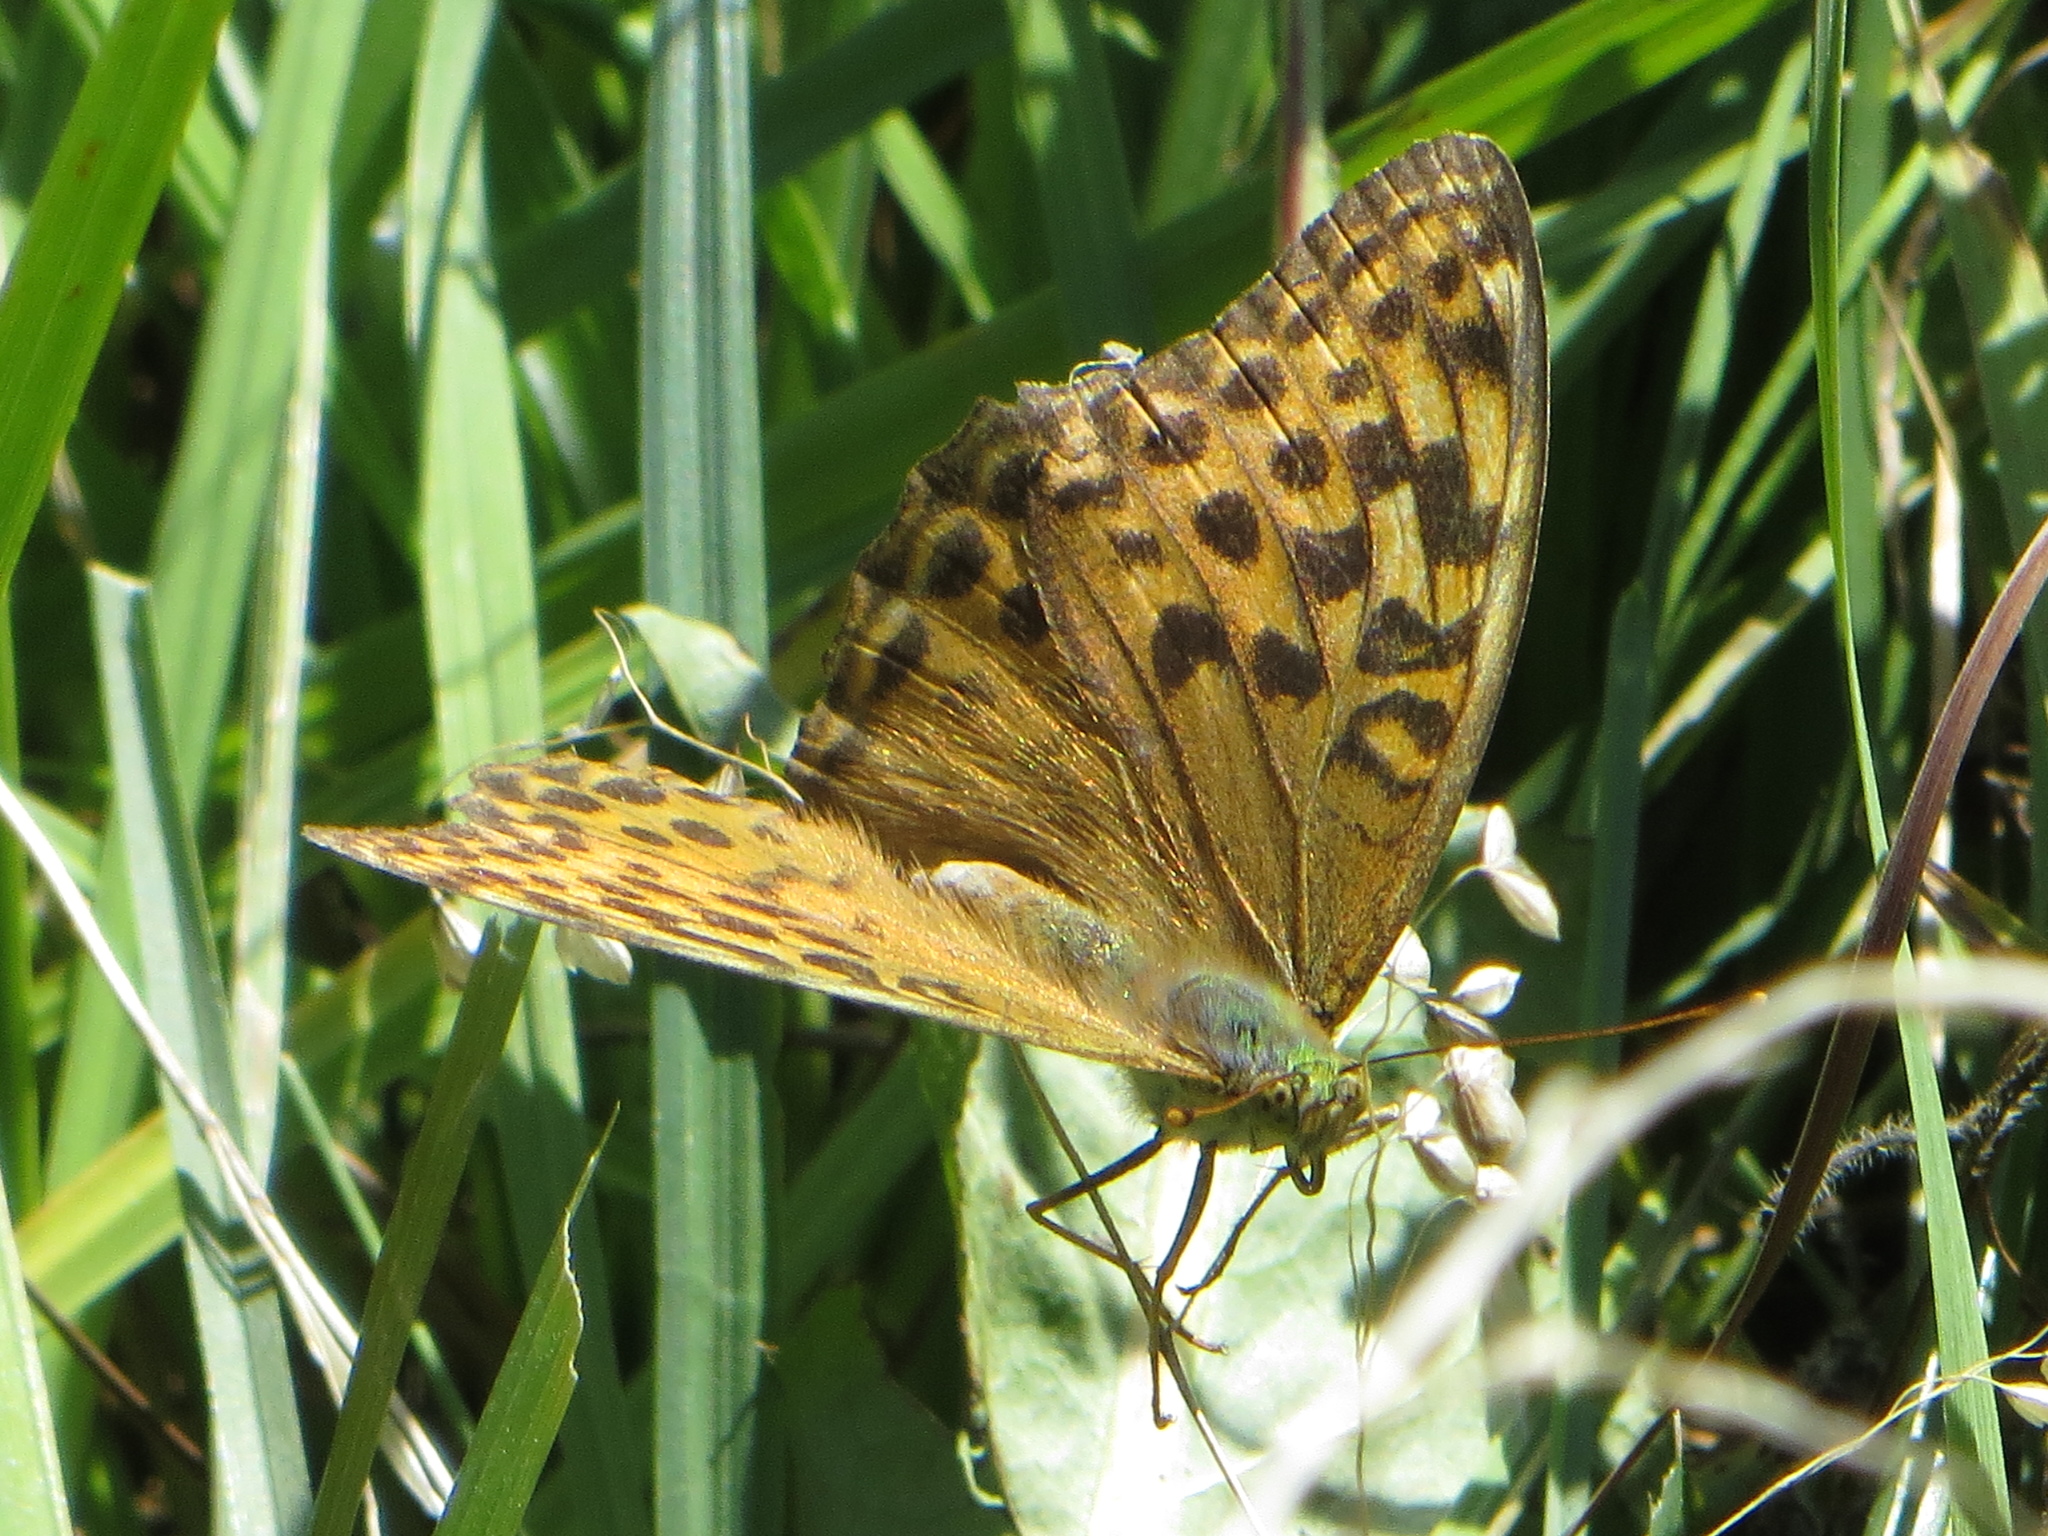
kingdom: Animalia
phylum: Arthropoda
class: Insecta
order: Lepidoptera
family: Nymphalidae
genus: Argynnis
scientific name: Argynnis paphia
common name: Silver-washed fritillary
